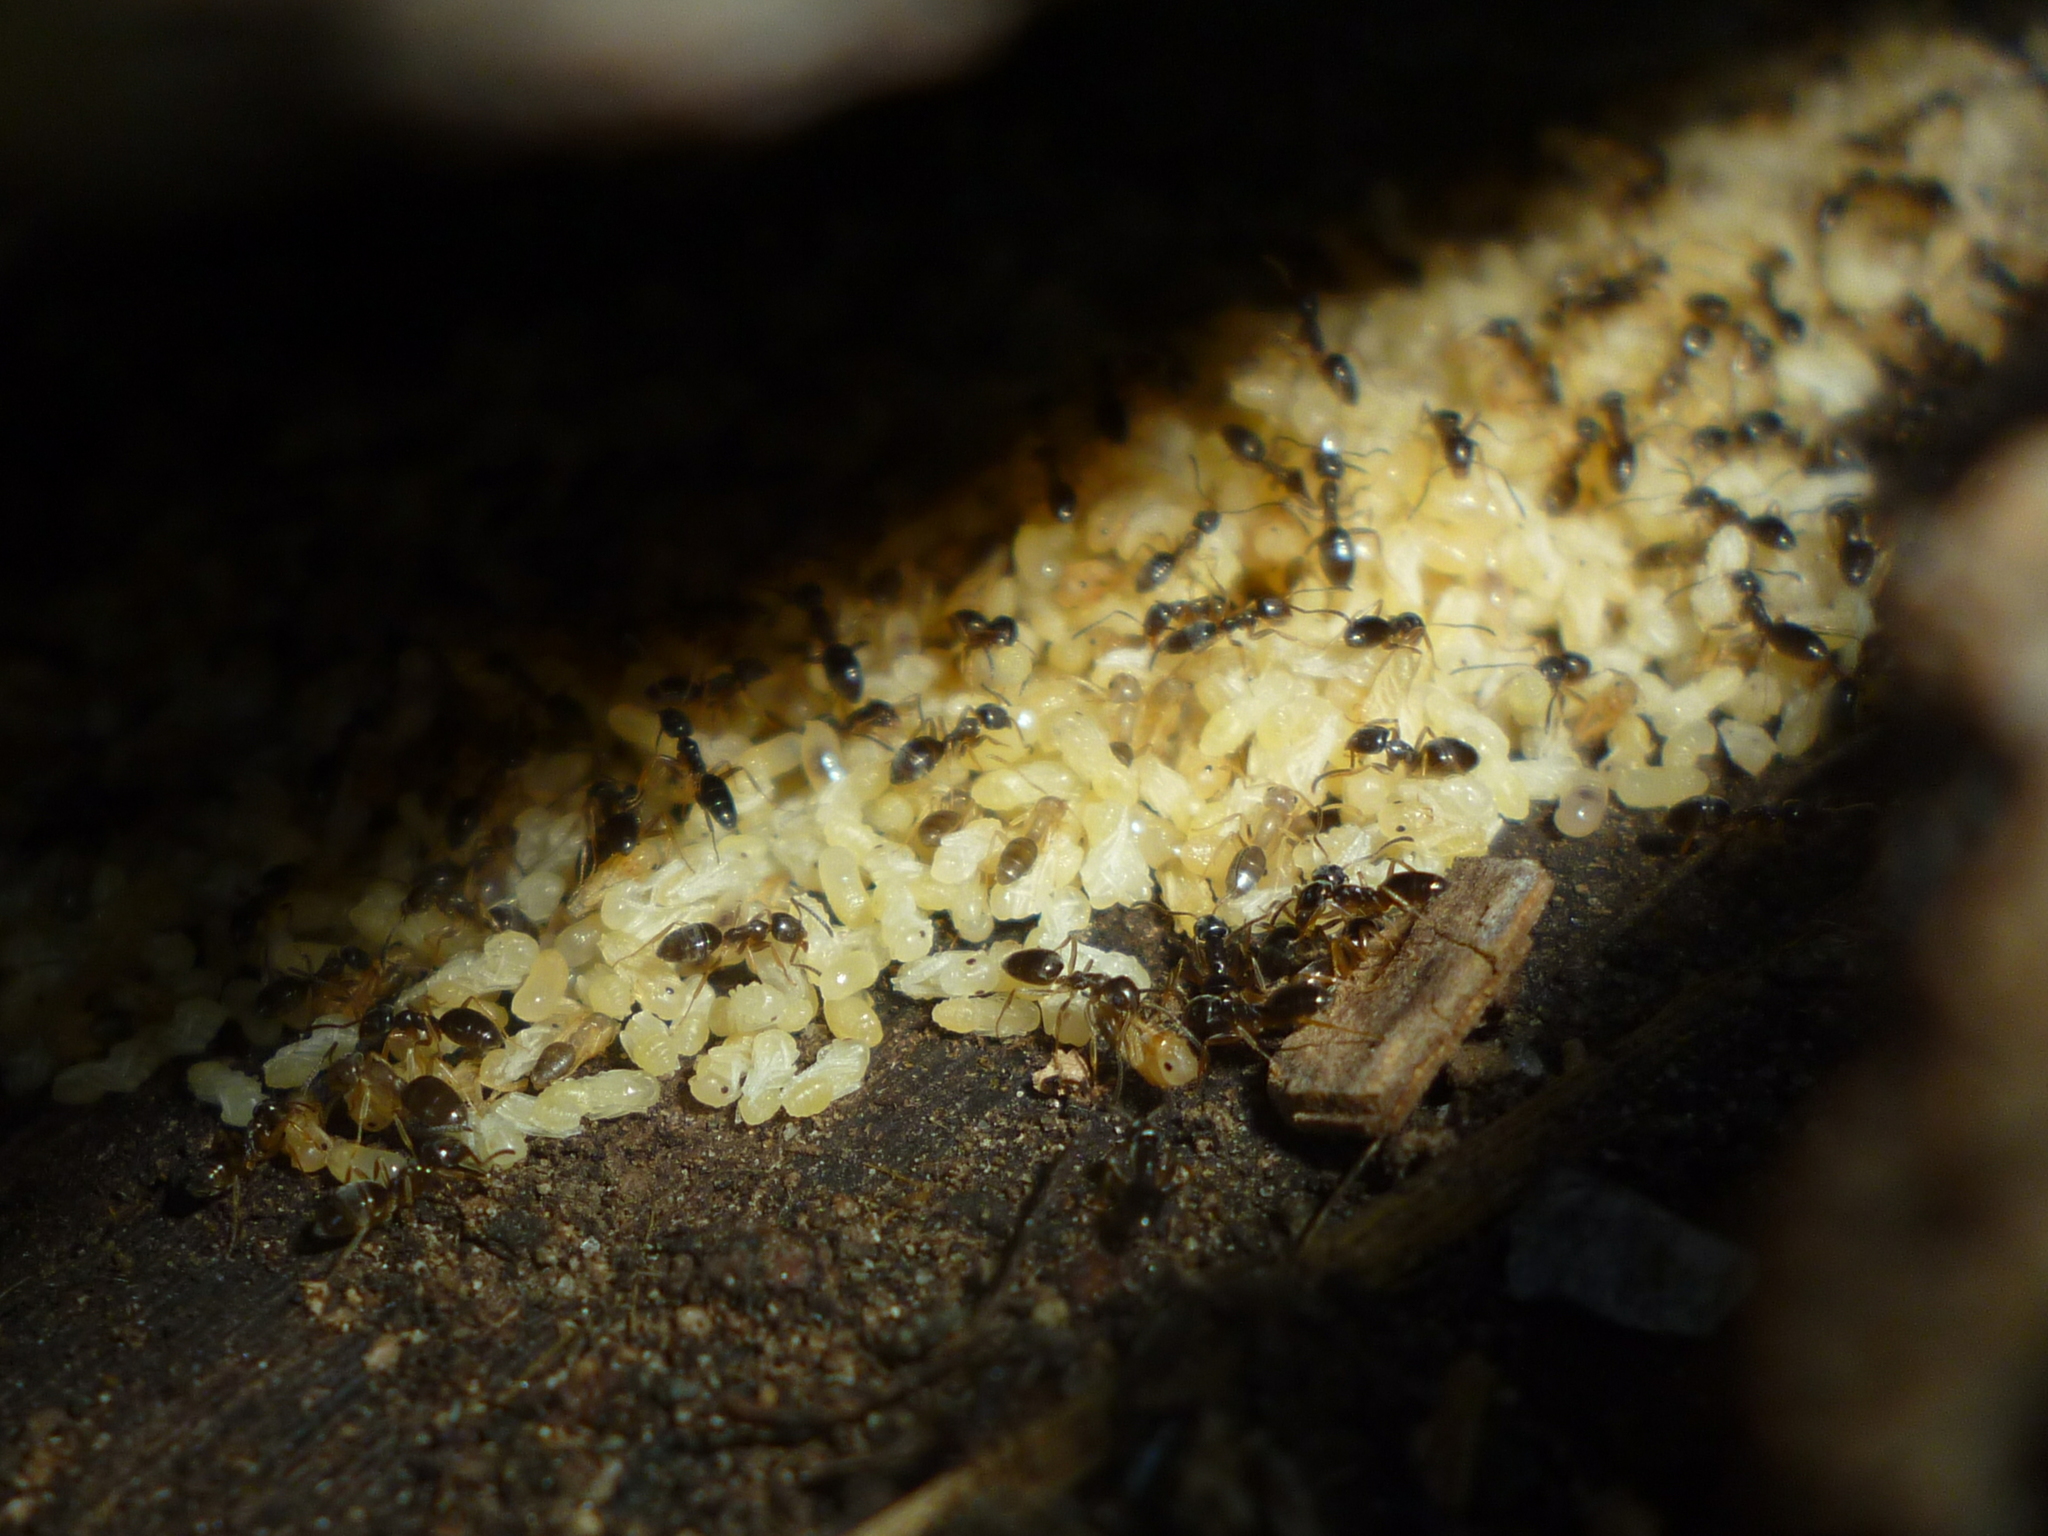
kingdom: Animalia
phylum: Arthropoda
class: Insecta
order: Hymenoptera
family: Formicidae
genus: Tapinoma
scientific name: Tapinoma sessile
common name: Odorous house ant
